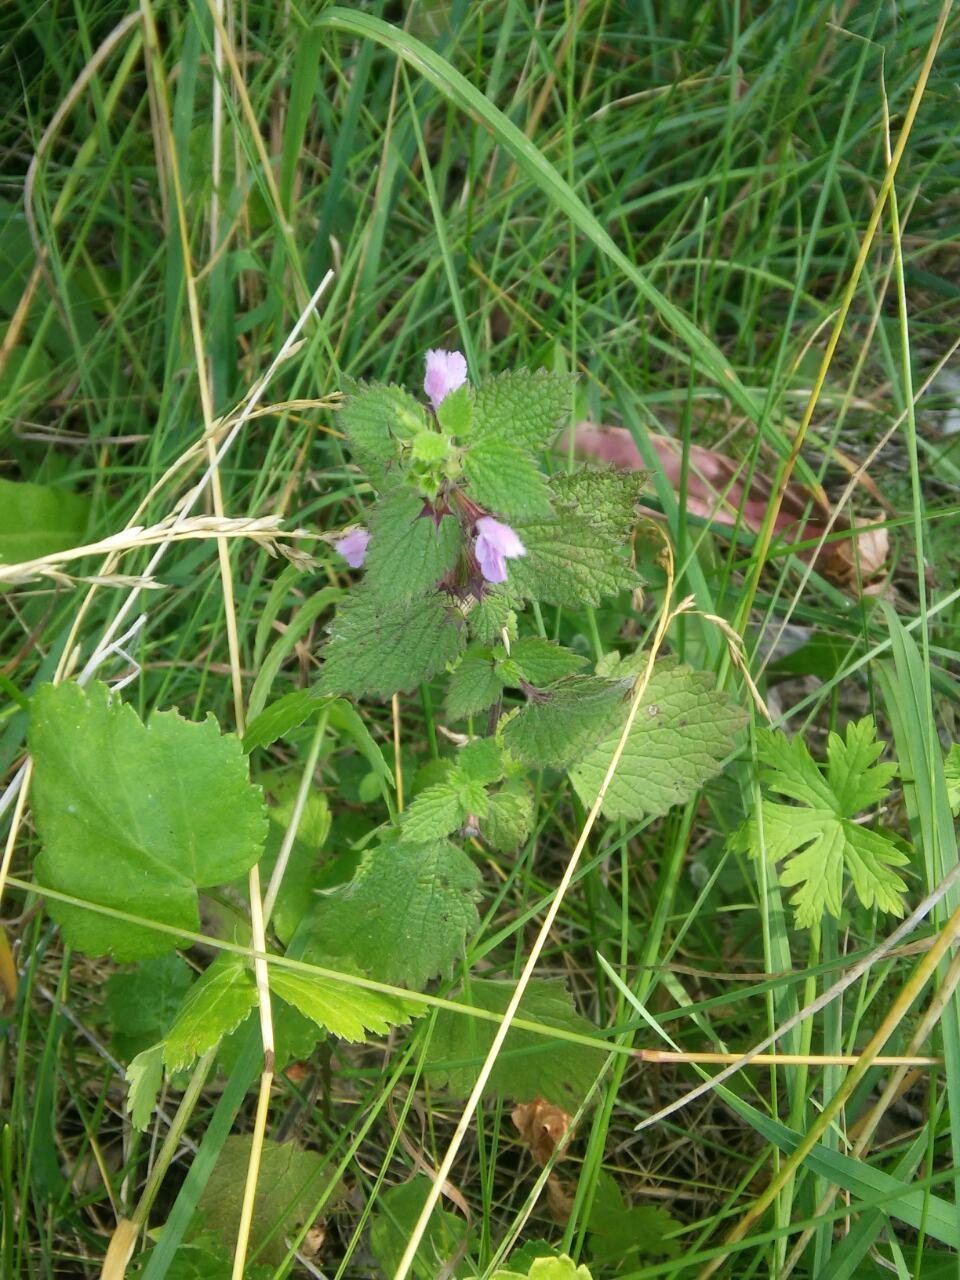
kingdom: Plantae
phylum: Tracheophyta
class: Magnoliopsida
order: Lamiales
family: Lamiaceae
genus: Ballota
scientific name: Ballota nigra
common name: Black horehound
